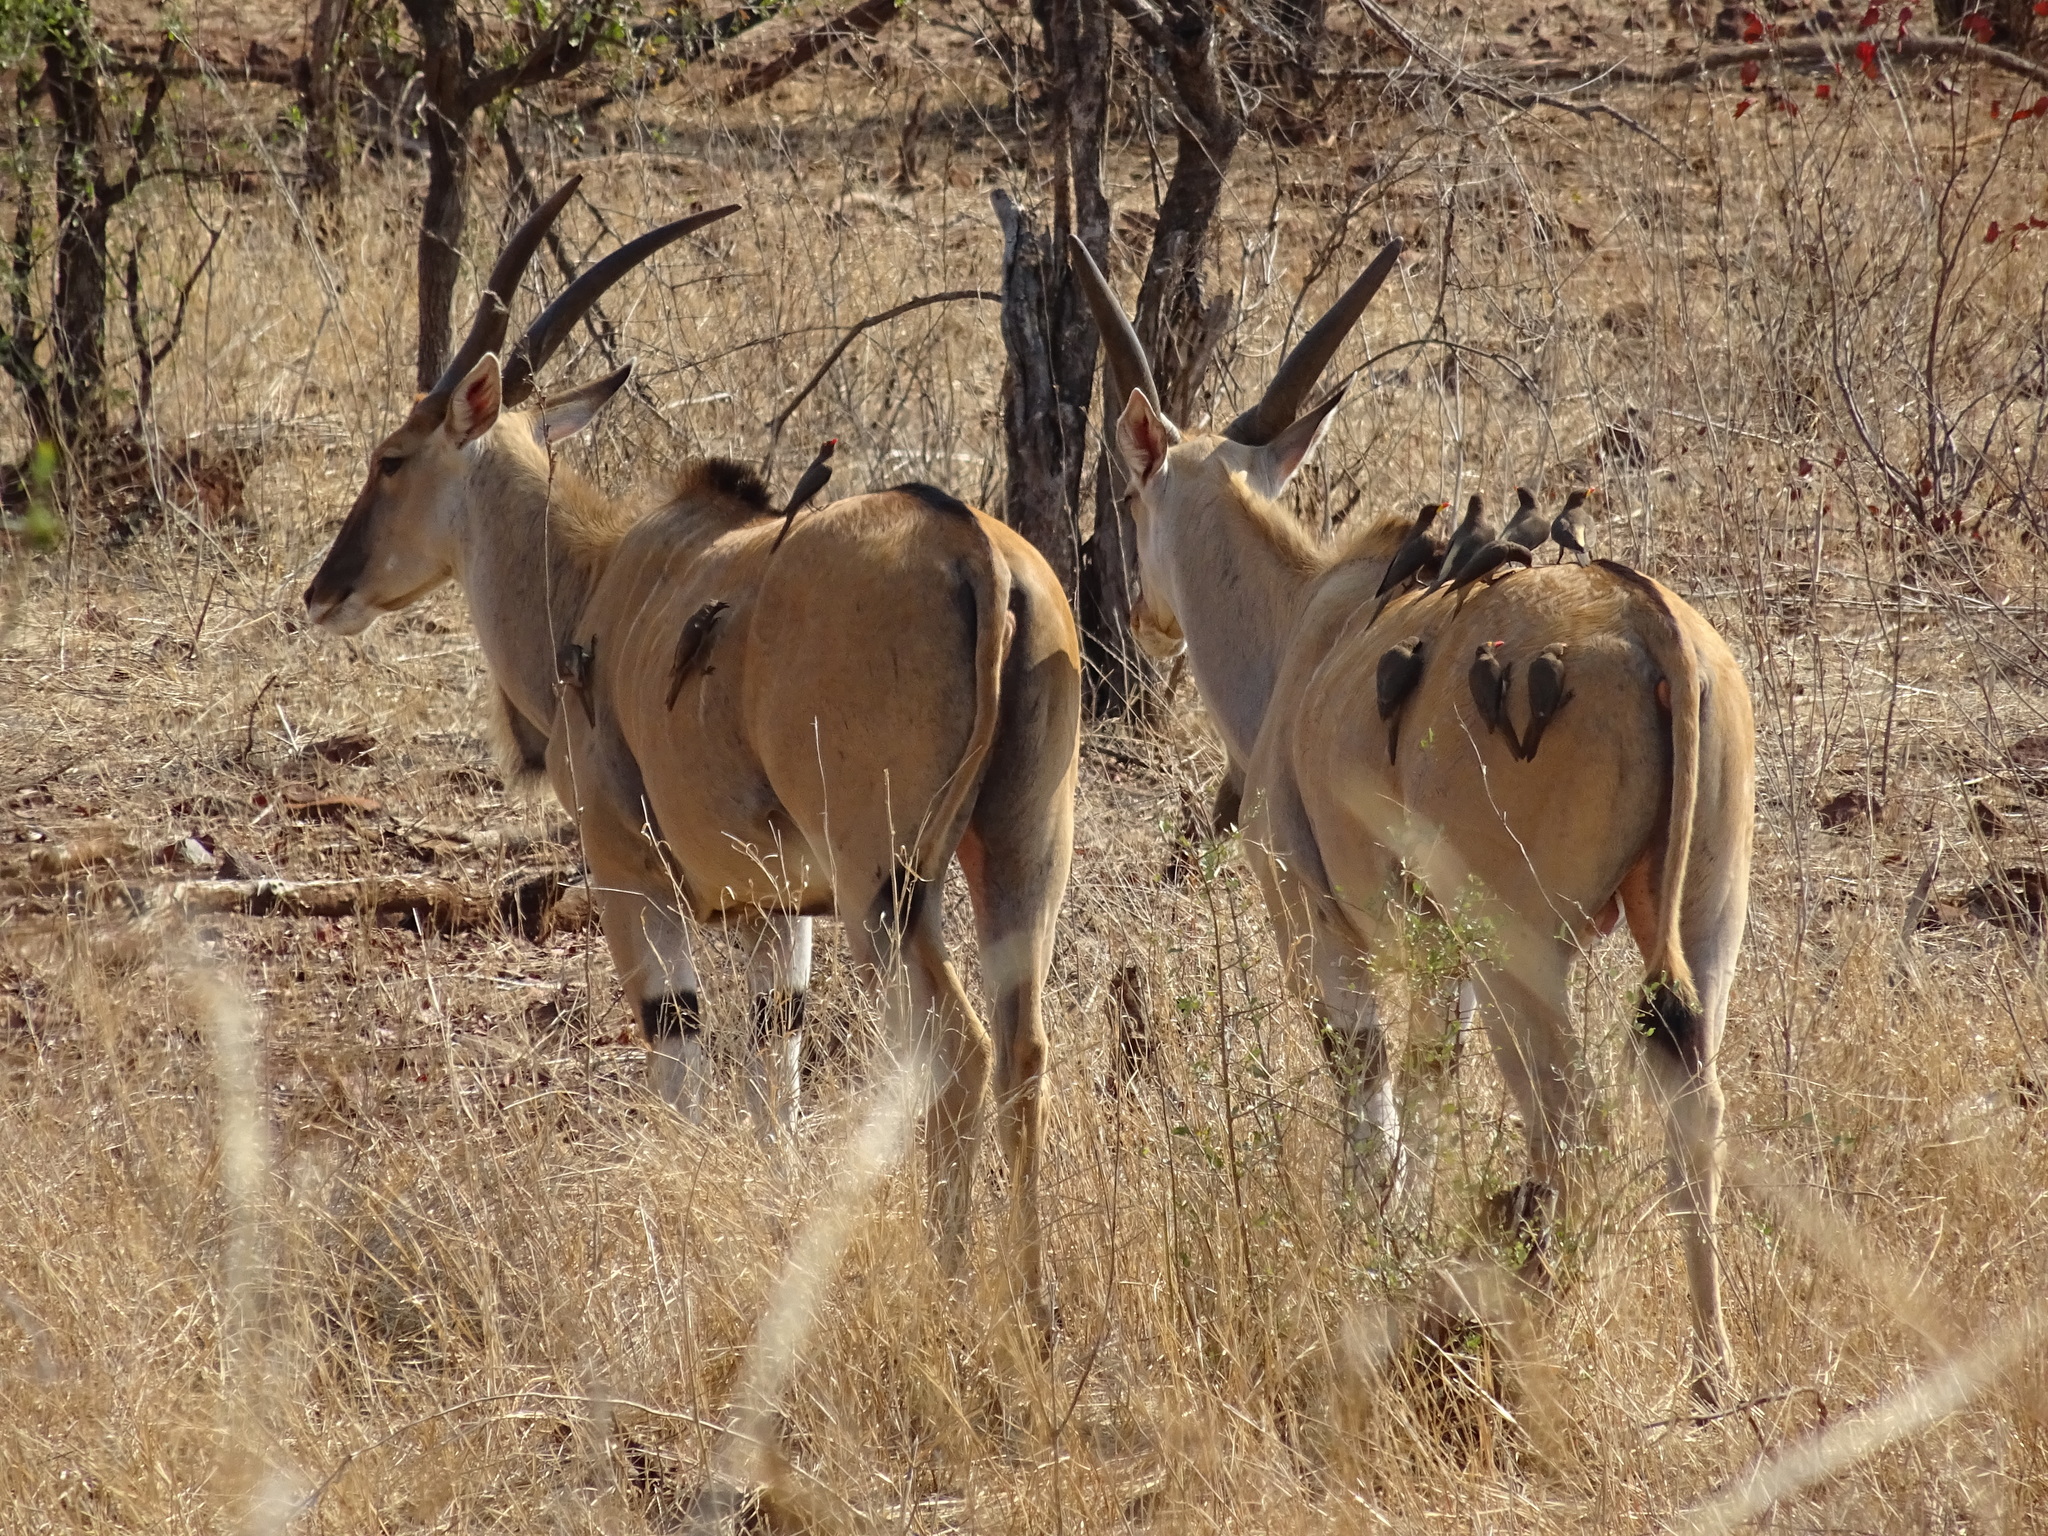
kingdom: Animalia
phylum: Chordata
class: Mammalia
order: Artiodactyla
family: Bovidae
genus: Taurotragus
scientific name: Taurotragus oryx
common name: Common eland
